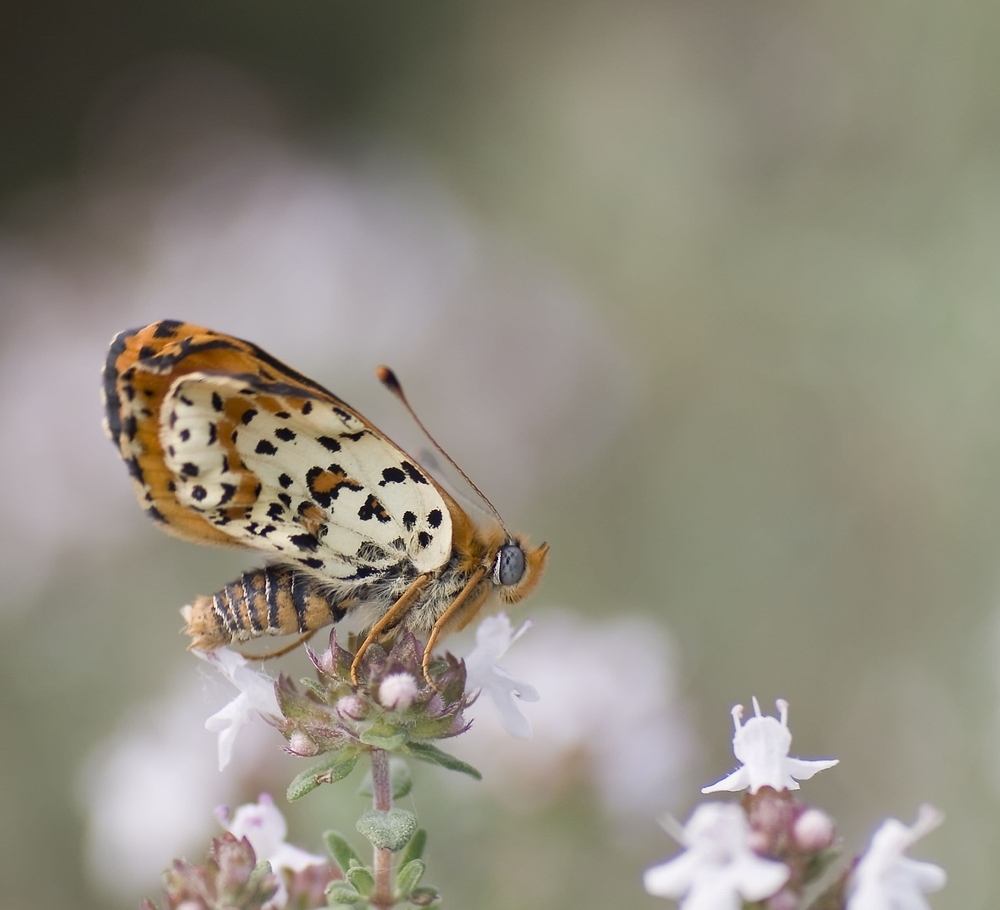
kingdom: Animalia
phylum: Arthropoda
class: Insecta
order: Lepidoptera
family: Nymphalidae
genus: Melitaea
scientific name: Melitaea didyma
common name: Spotted fritillary
